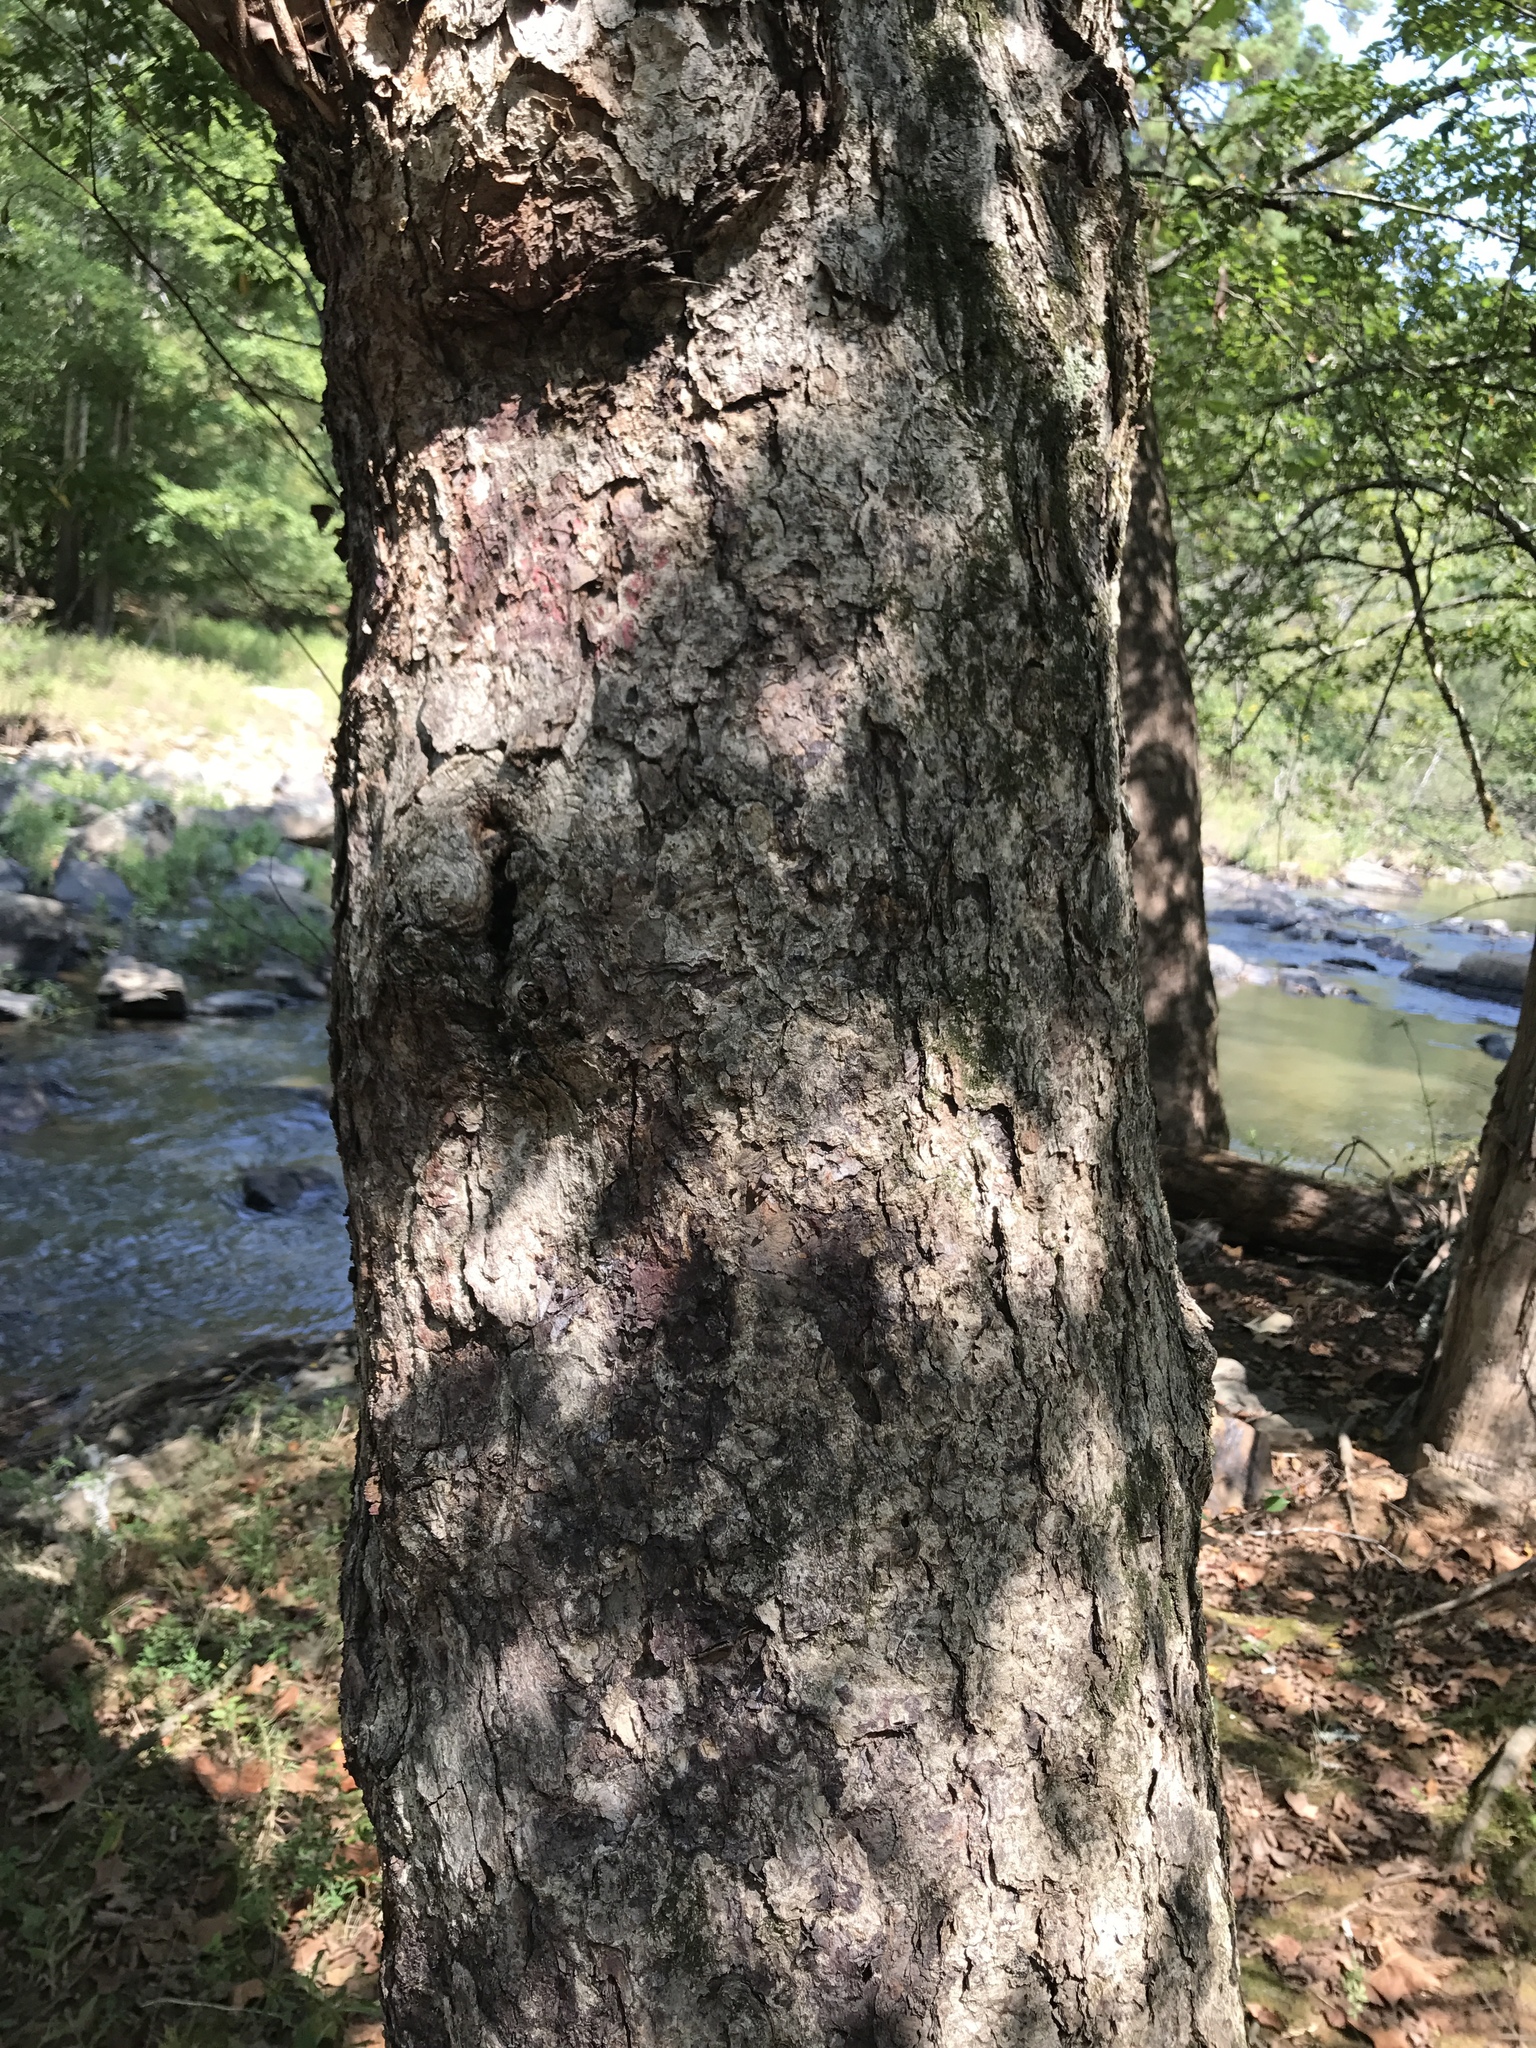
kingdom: Plantae
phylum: Tracheophyta
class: Magnoliopsida
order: Fagales
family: Betulaceae
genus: Betula
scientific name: Betula nigra
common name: Black birch
